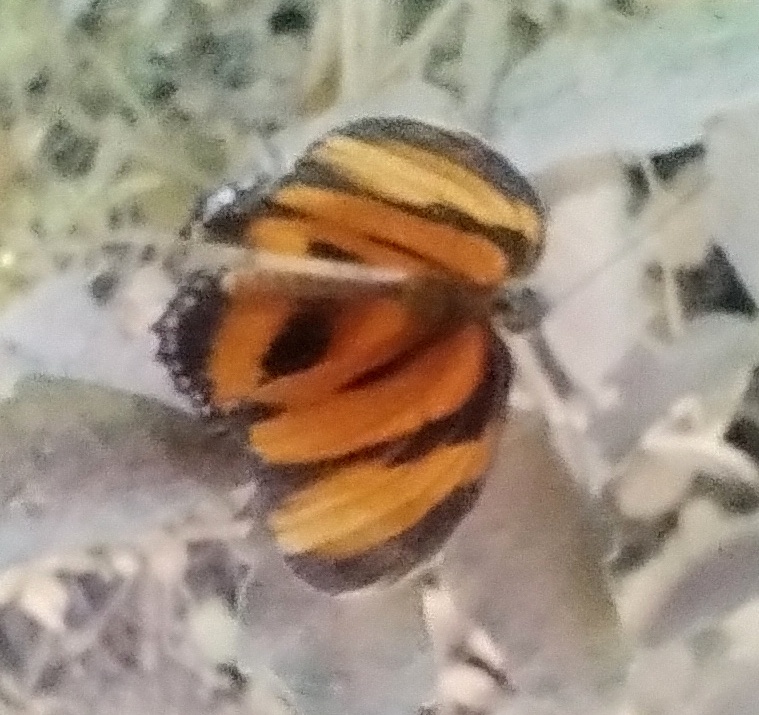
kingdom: Animalia
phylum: Arthropoda
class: Insecta
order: Lepidoptera
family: Nymphalidae
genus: Dryadula
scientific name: Dryadula phaetusa
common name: Banded orange heliconian
